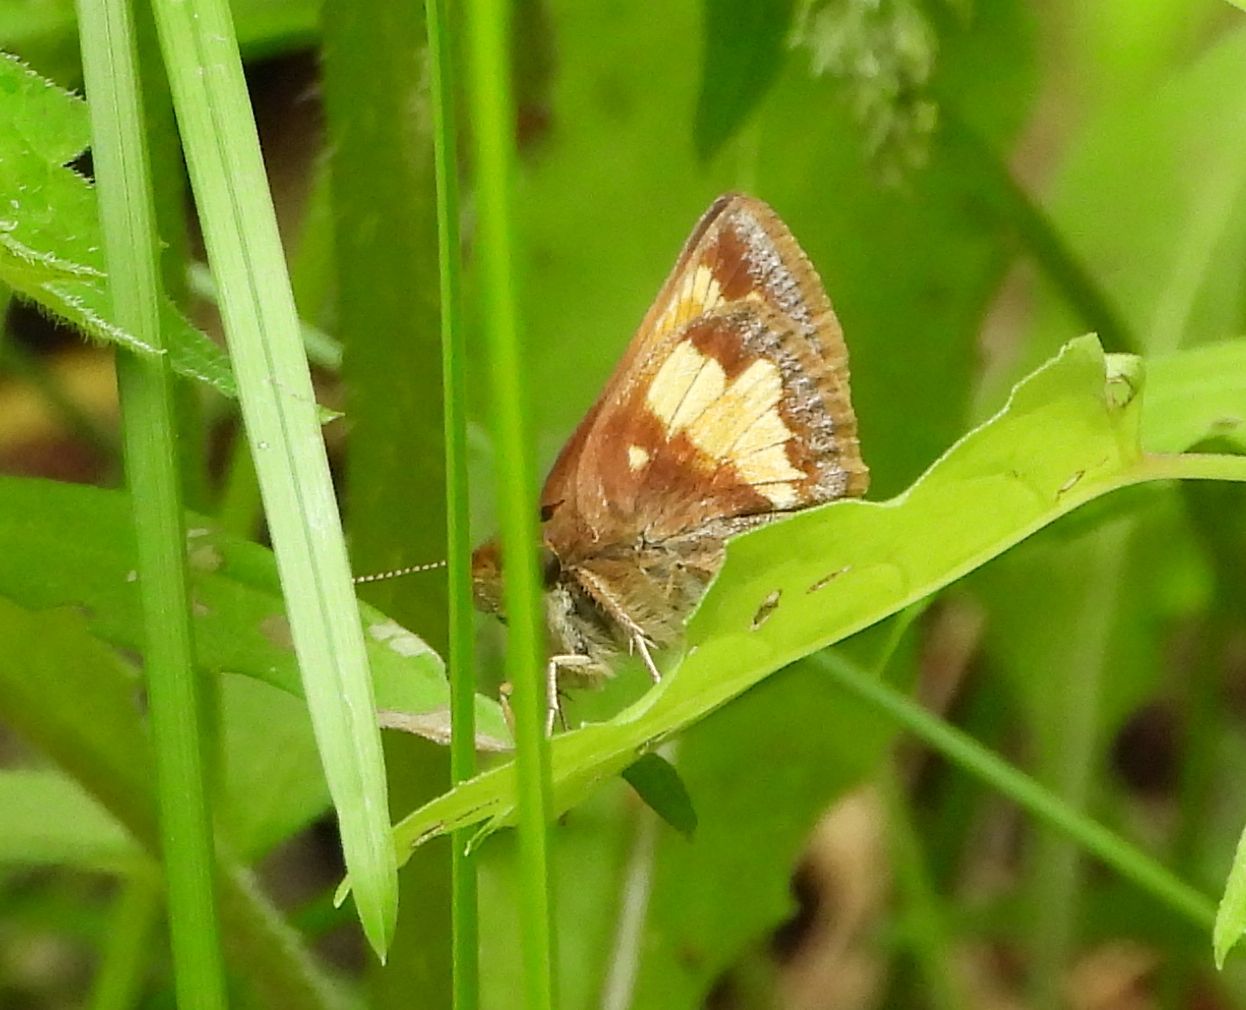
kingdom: Animalia
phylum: Arthropoda
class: Insecta
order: Lepidoptera
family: Hesperiidae
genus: Lon
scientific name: Lon hobomok
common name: Hobomok skipper
